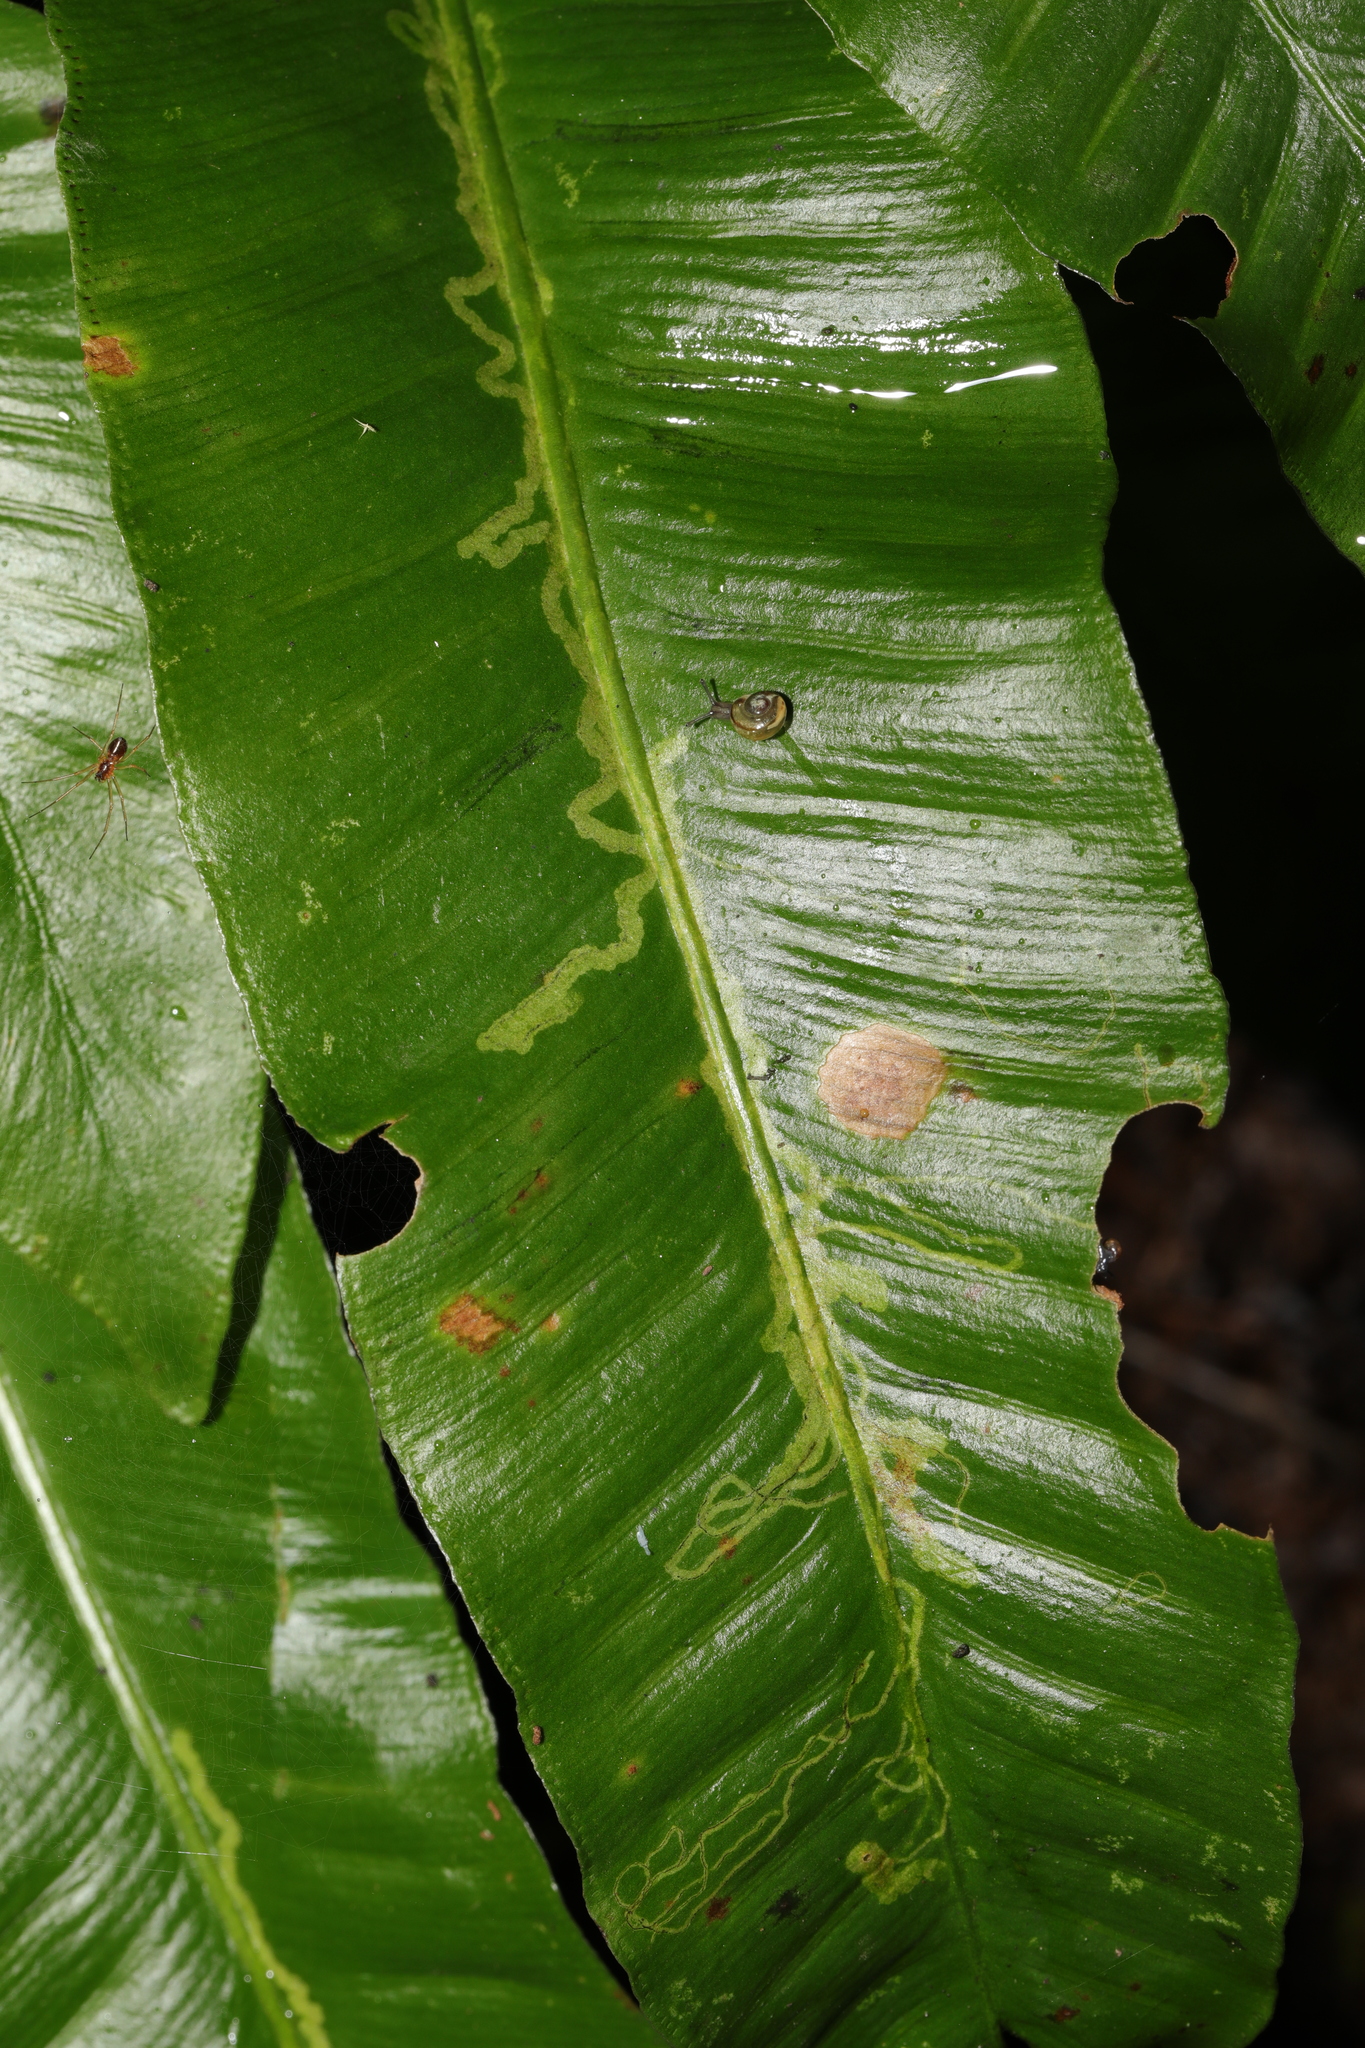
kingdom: Animalia
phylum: Arthropoda
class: Insecta
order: Diptera
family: Agromyzidae
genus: Phytomyza
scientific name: Phytomyza scolopendri
